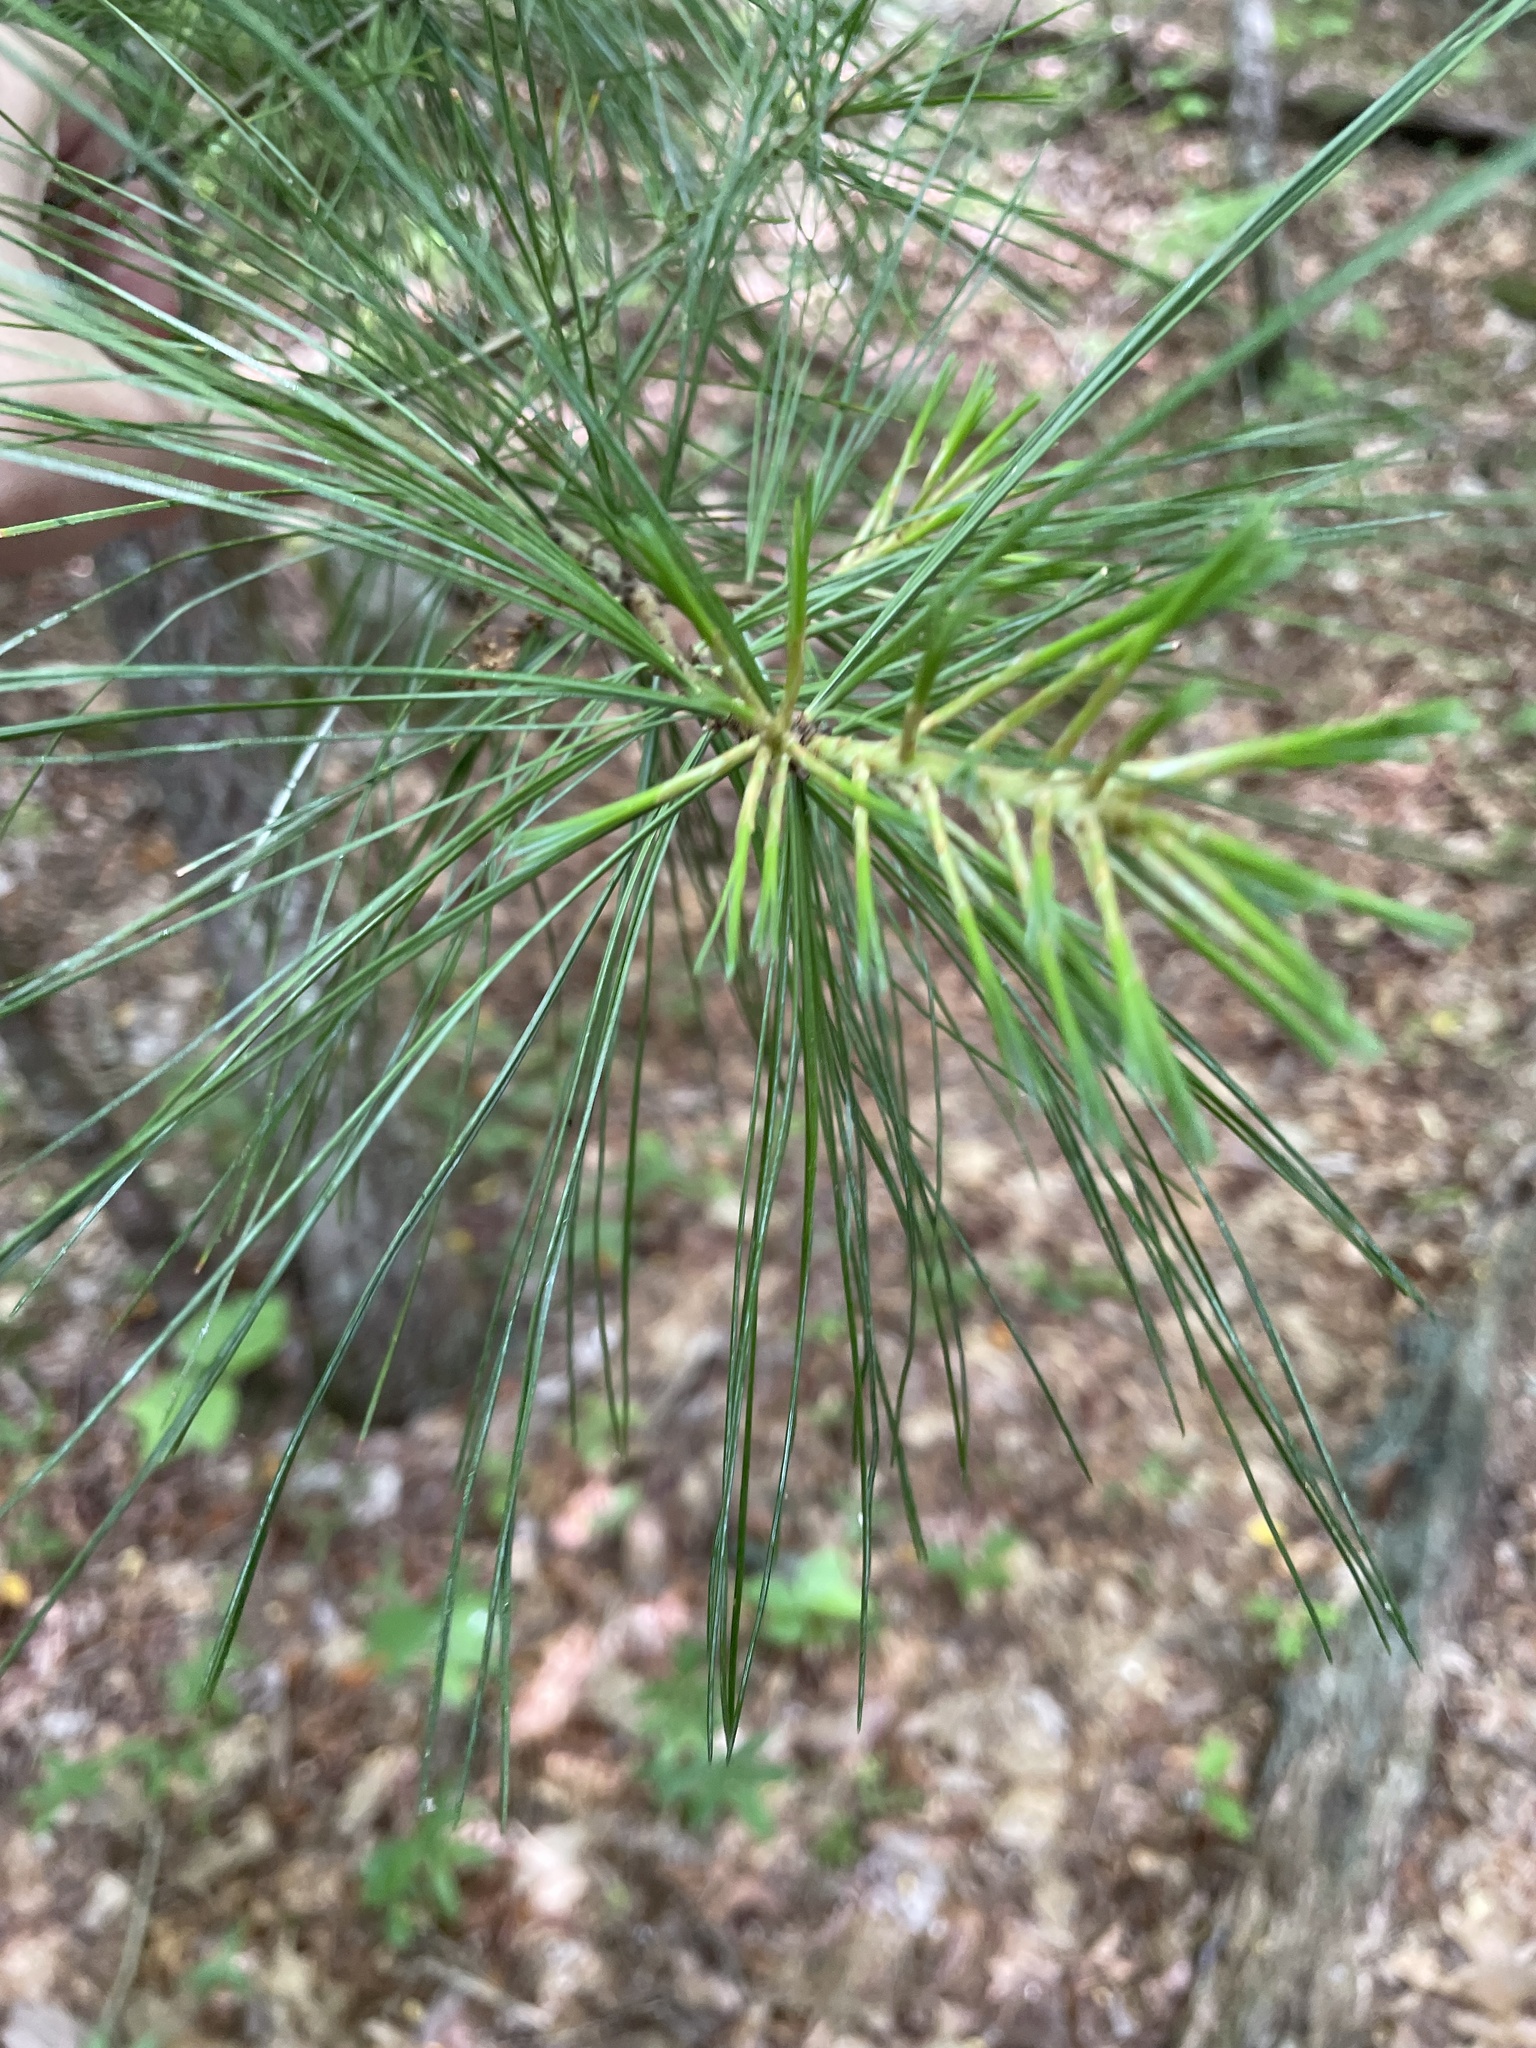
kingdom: Plantae
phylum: Tracheophyta
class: Pinopsida
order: Pinales
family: Pinaceae
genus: Pinus
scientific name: Pinus strobus
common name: Weymouth pine
